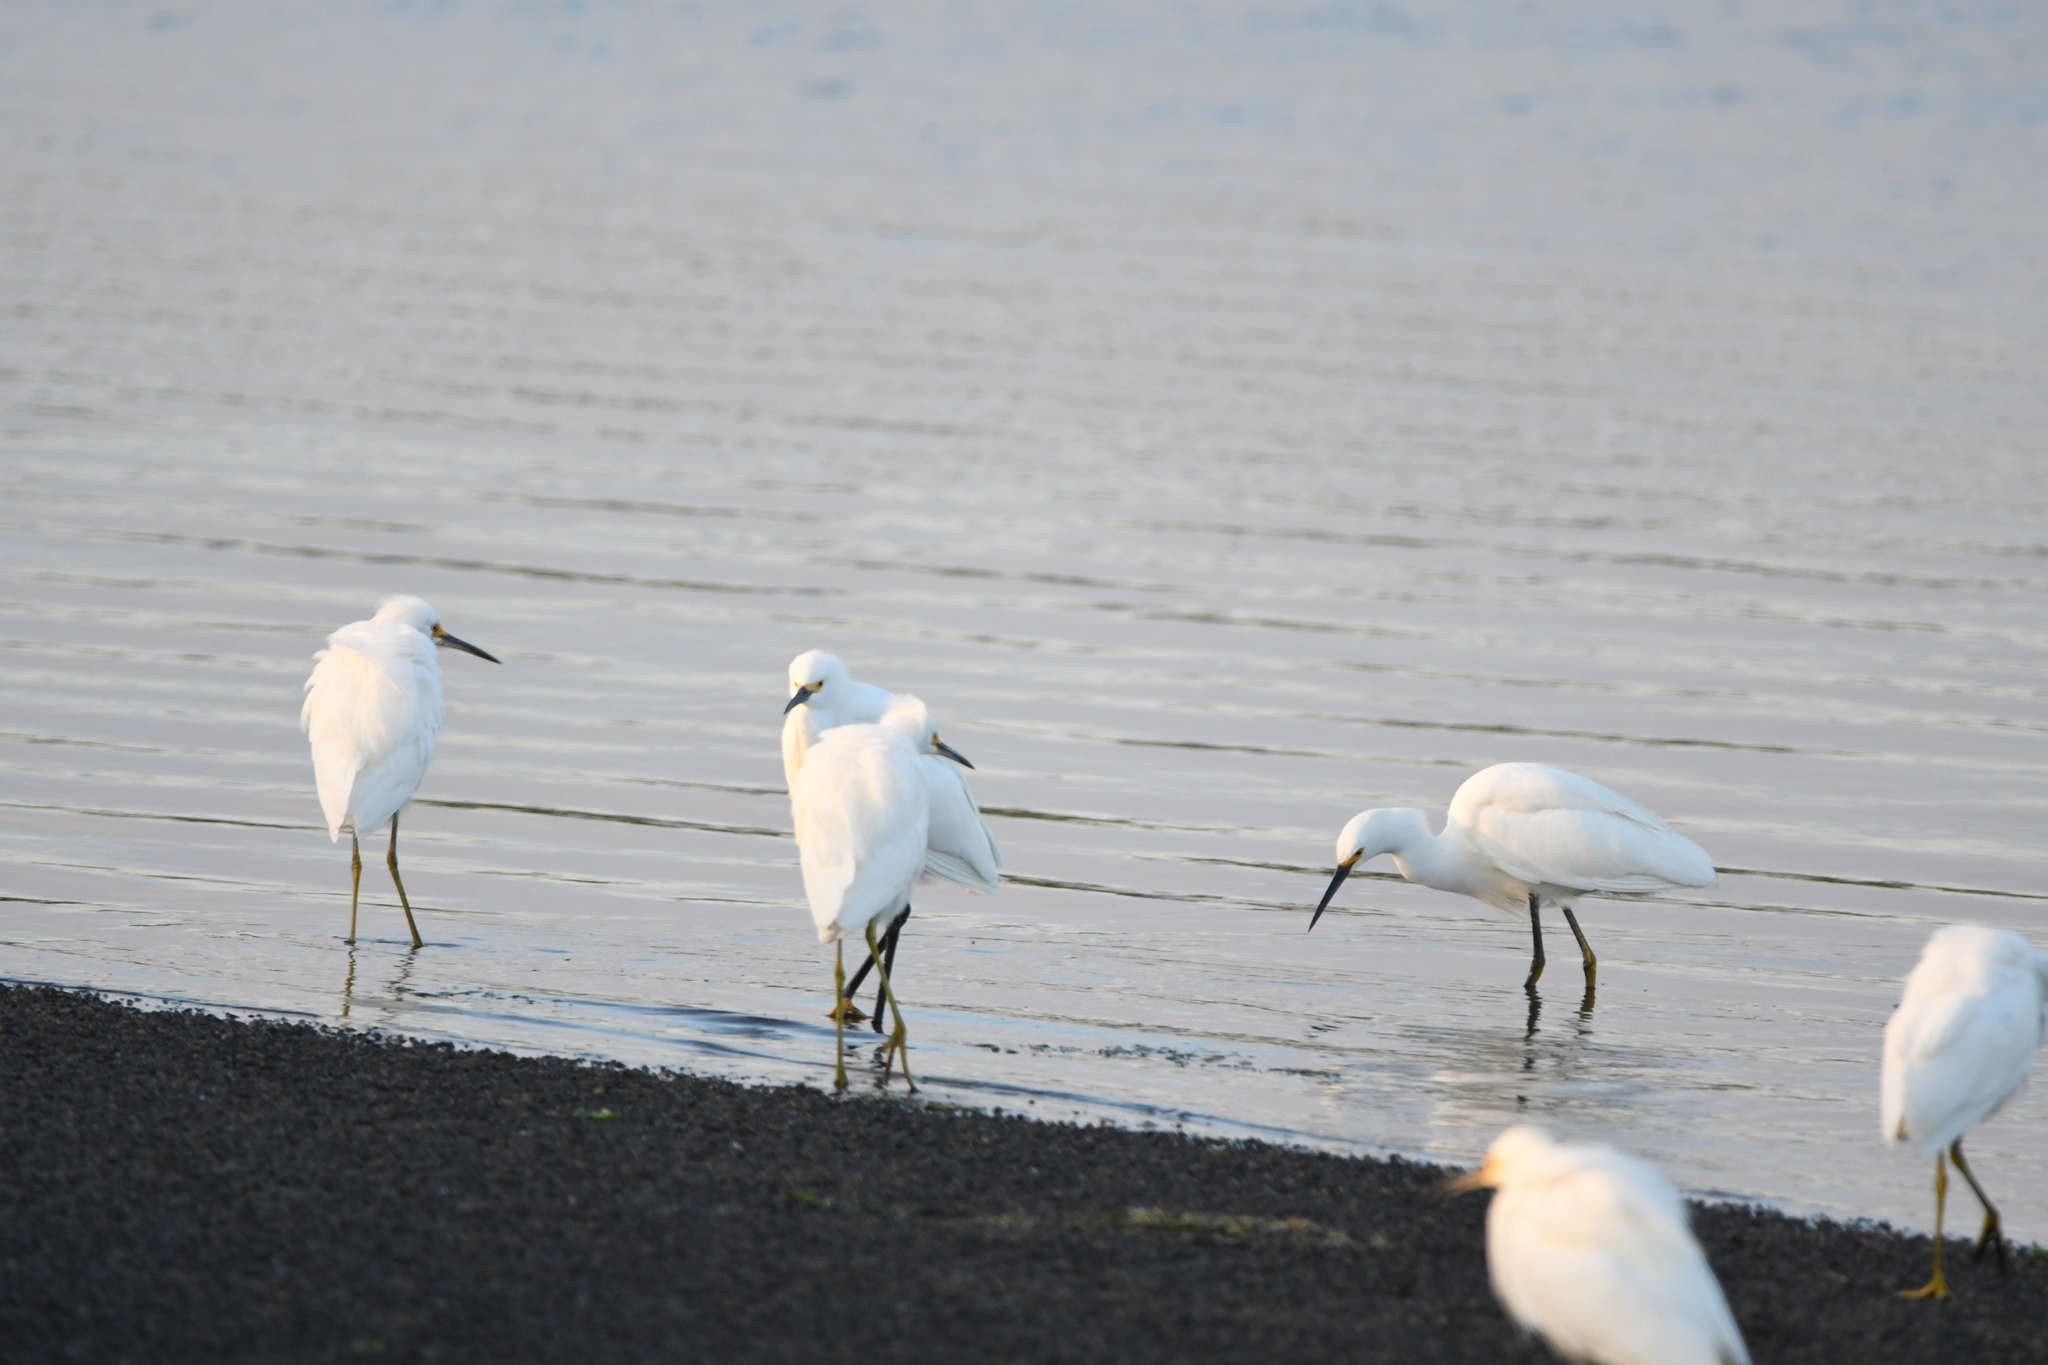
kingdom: Animalia
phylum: Chordata
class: Aves
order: Pelecaniformes
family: Ardeidae
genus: Egretta
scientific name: Egretta thula
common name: Snowy egret
